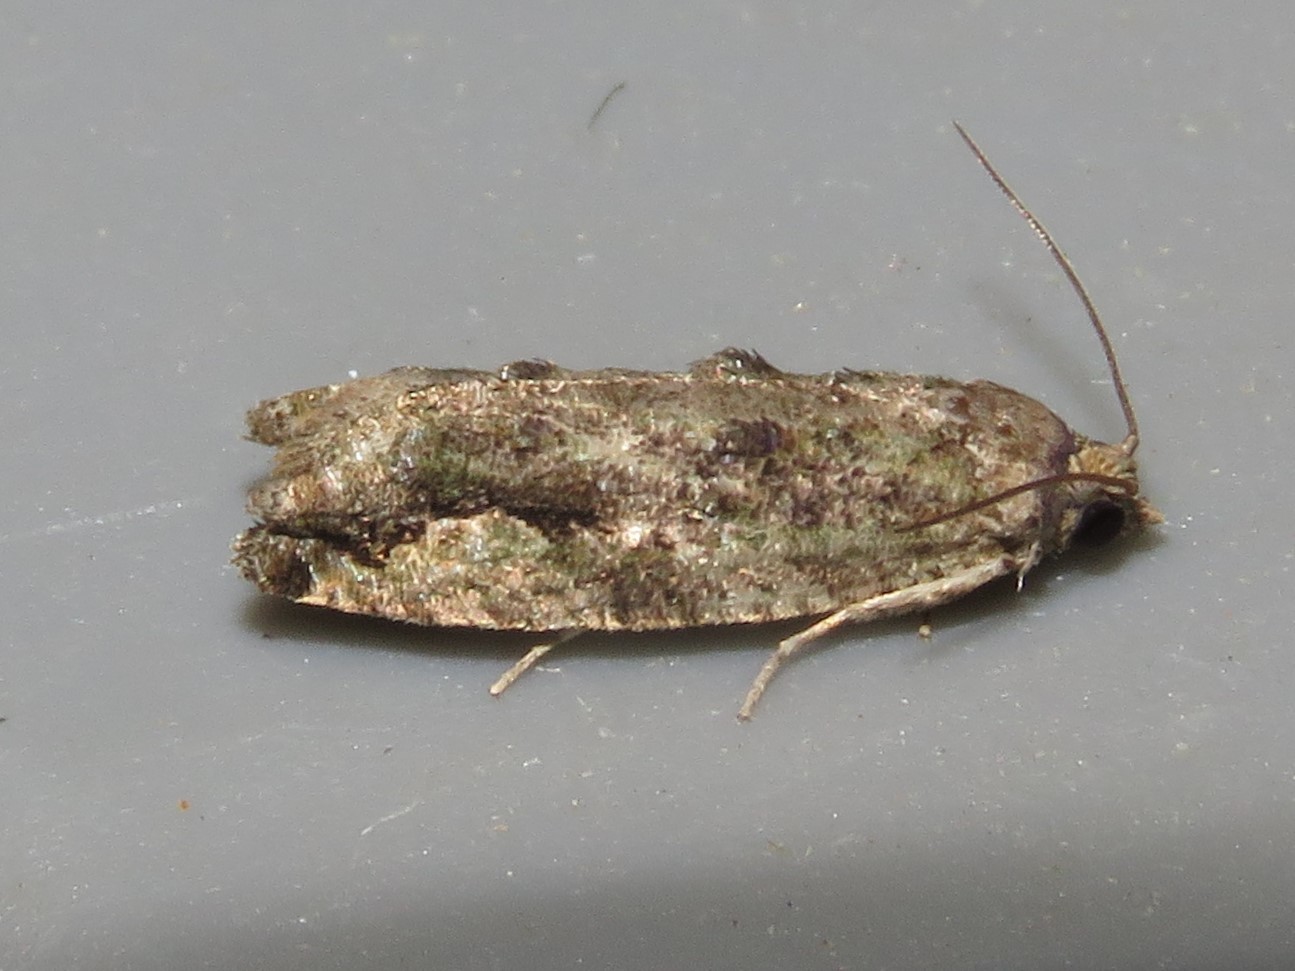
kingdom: Animalia
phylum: Arthropoda
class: Insecta
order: Lepidoptera
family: Tortricidae
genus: Proteoteras
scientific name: Proteoteras aesculana
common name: Maple twig borer moth
